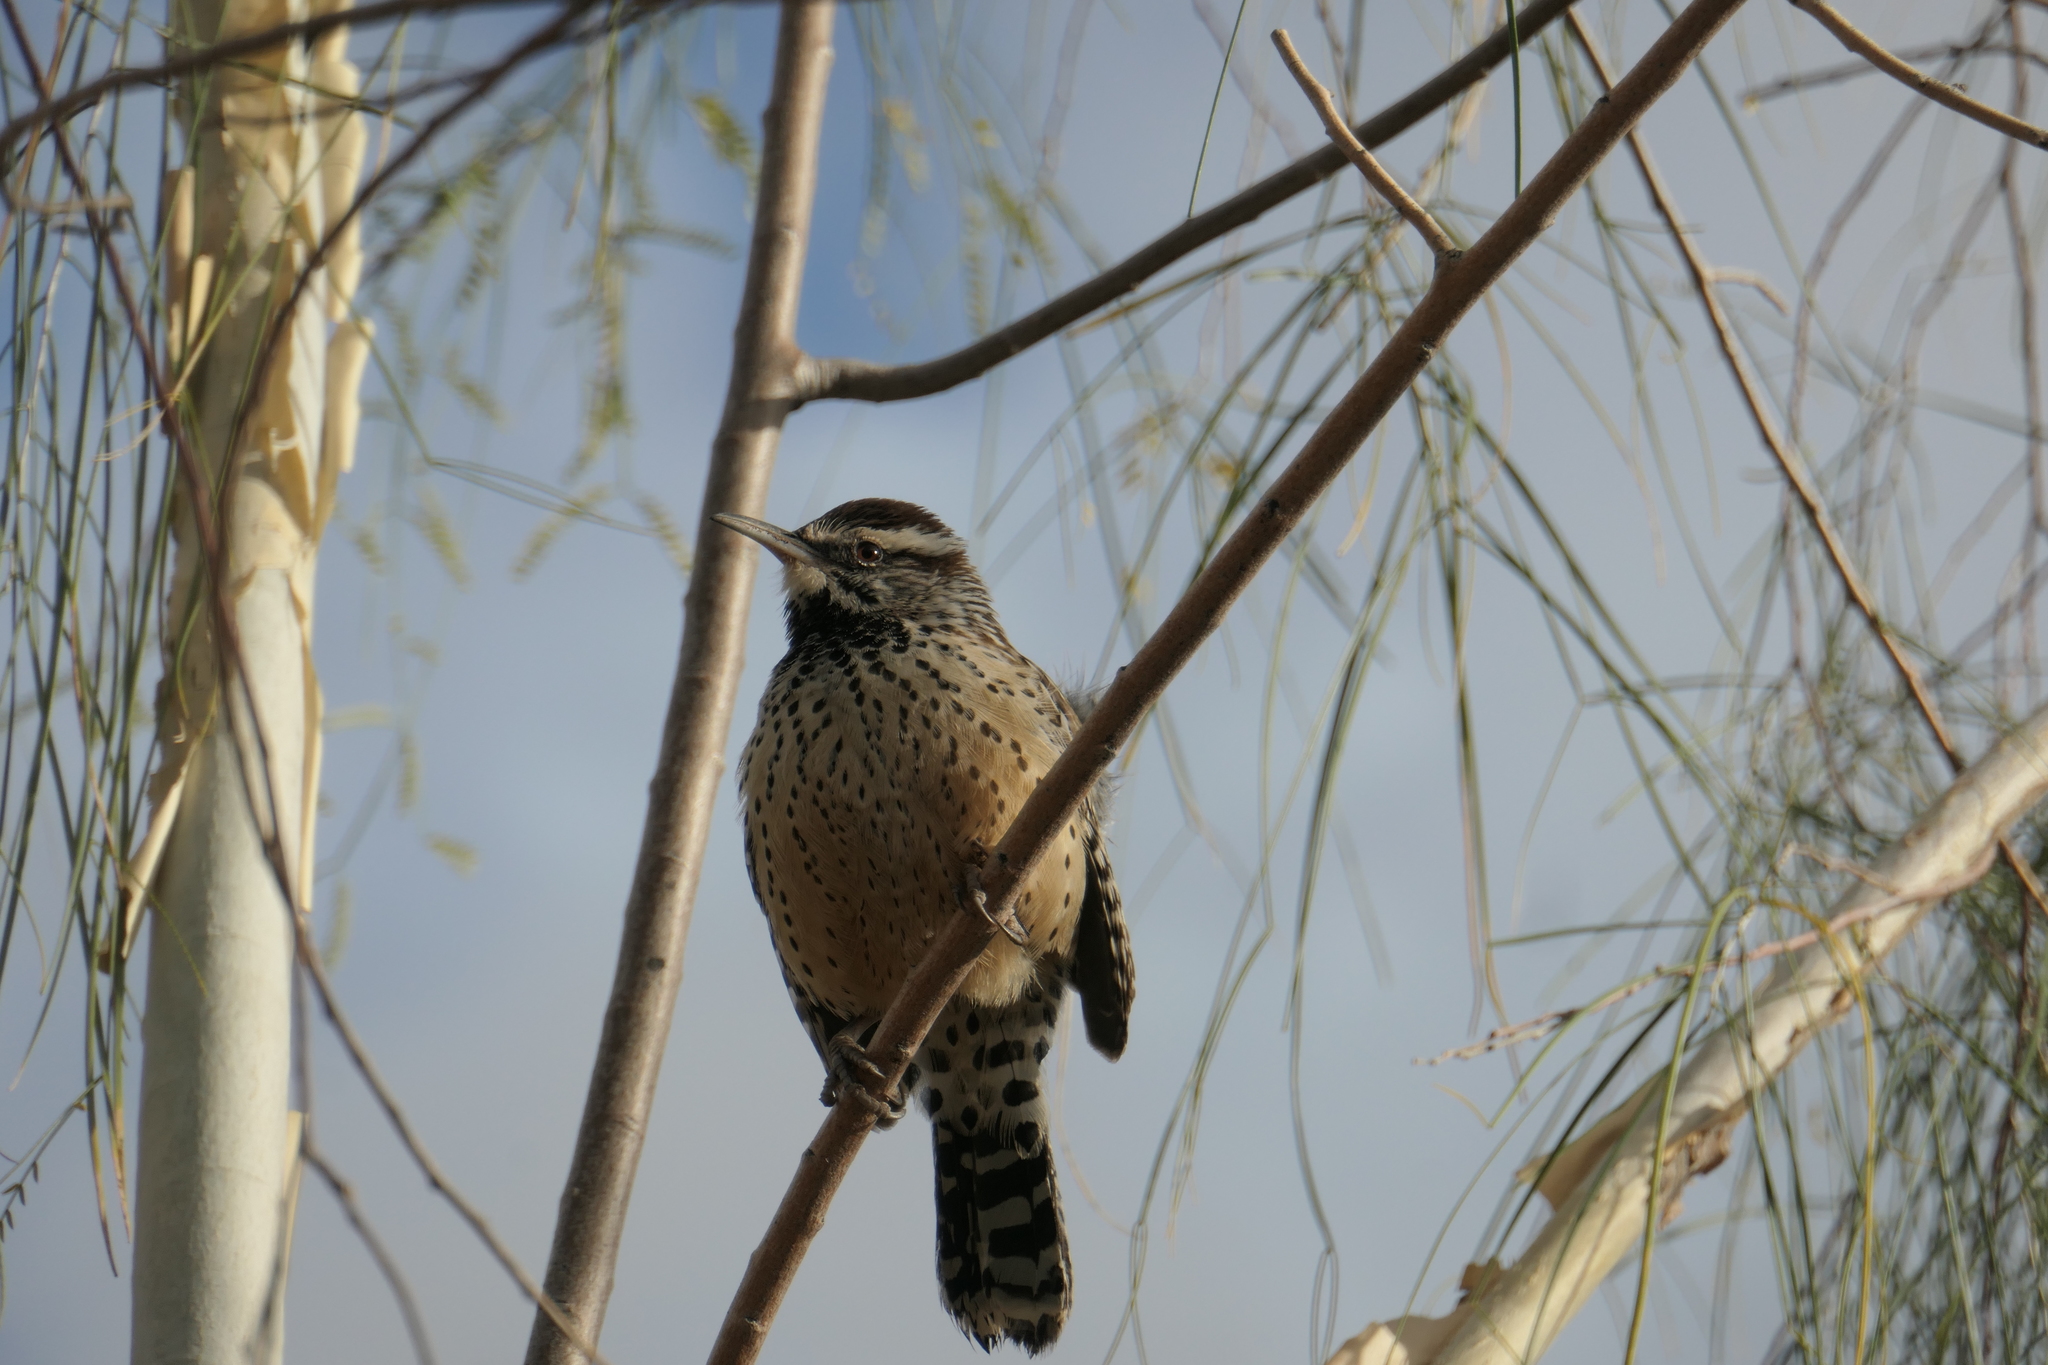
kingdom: Animalia
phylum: Chordata
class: Aves
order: Passeriformes
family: Troglodytidae
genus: Campylorhynchus
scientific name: Campylorhynchus brunneicapillus
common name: Cactus wren
